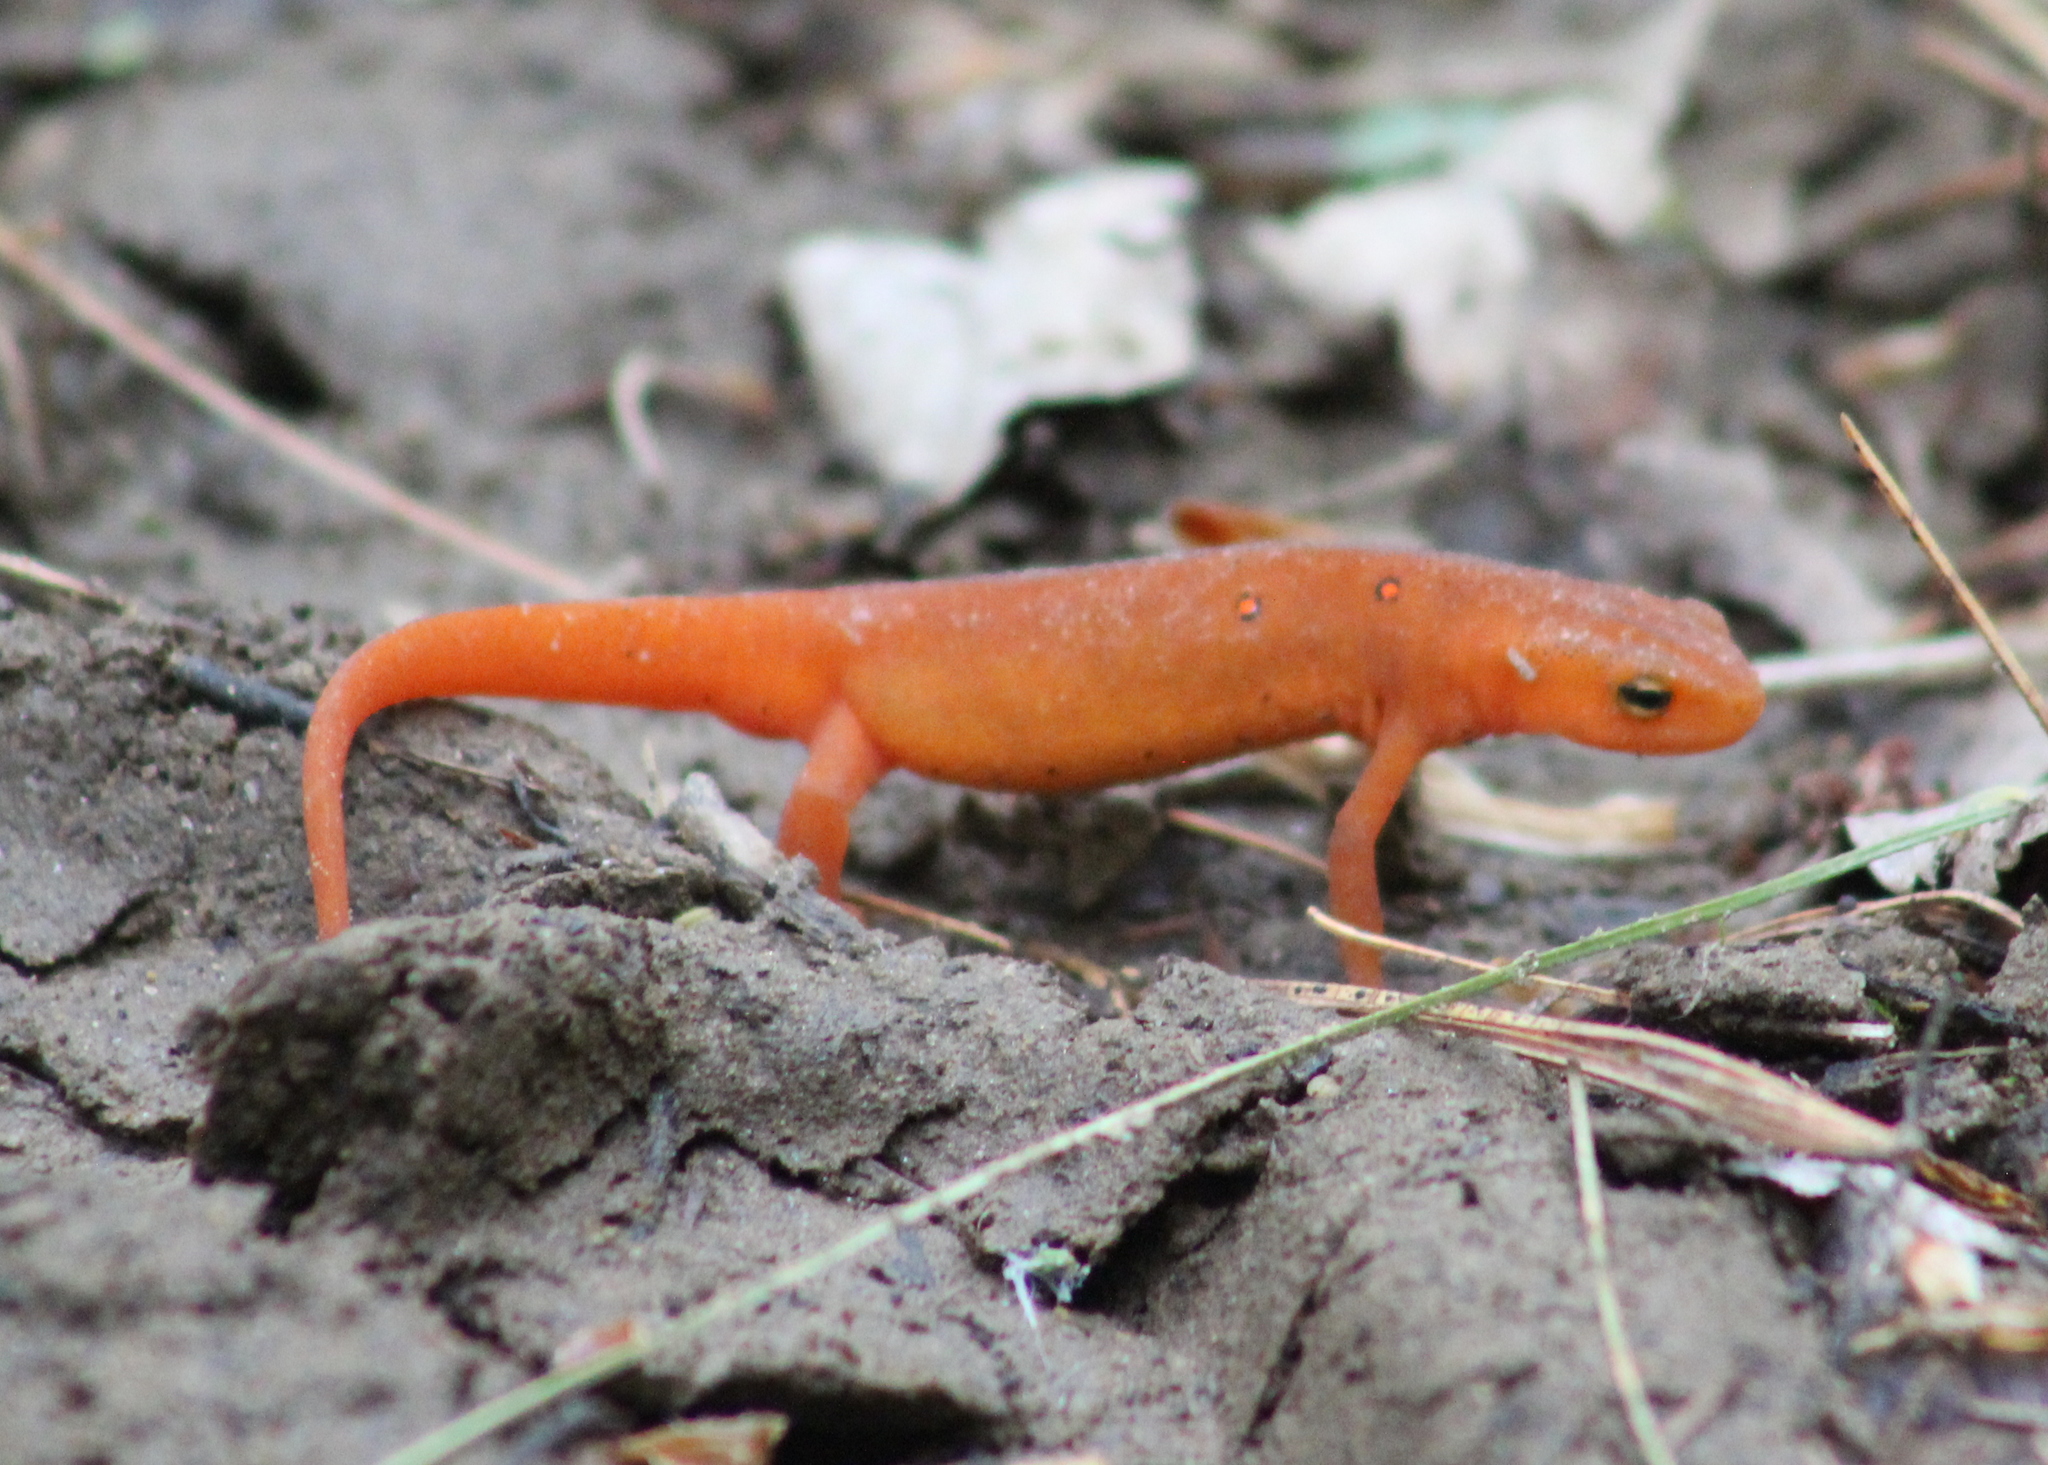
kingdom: Animalia
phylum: Chordata
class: Amphibia
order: Caudata
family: Salamandridae
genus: Notophthalmus
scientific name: Notophthalmus viridescens
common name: Eastern newt
